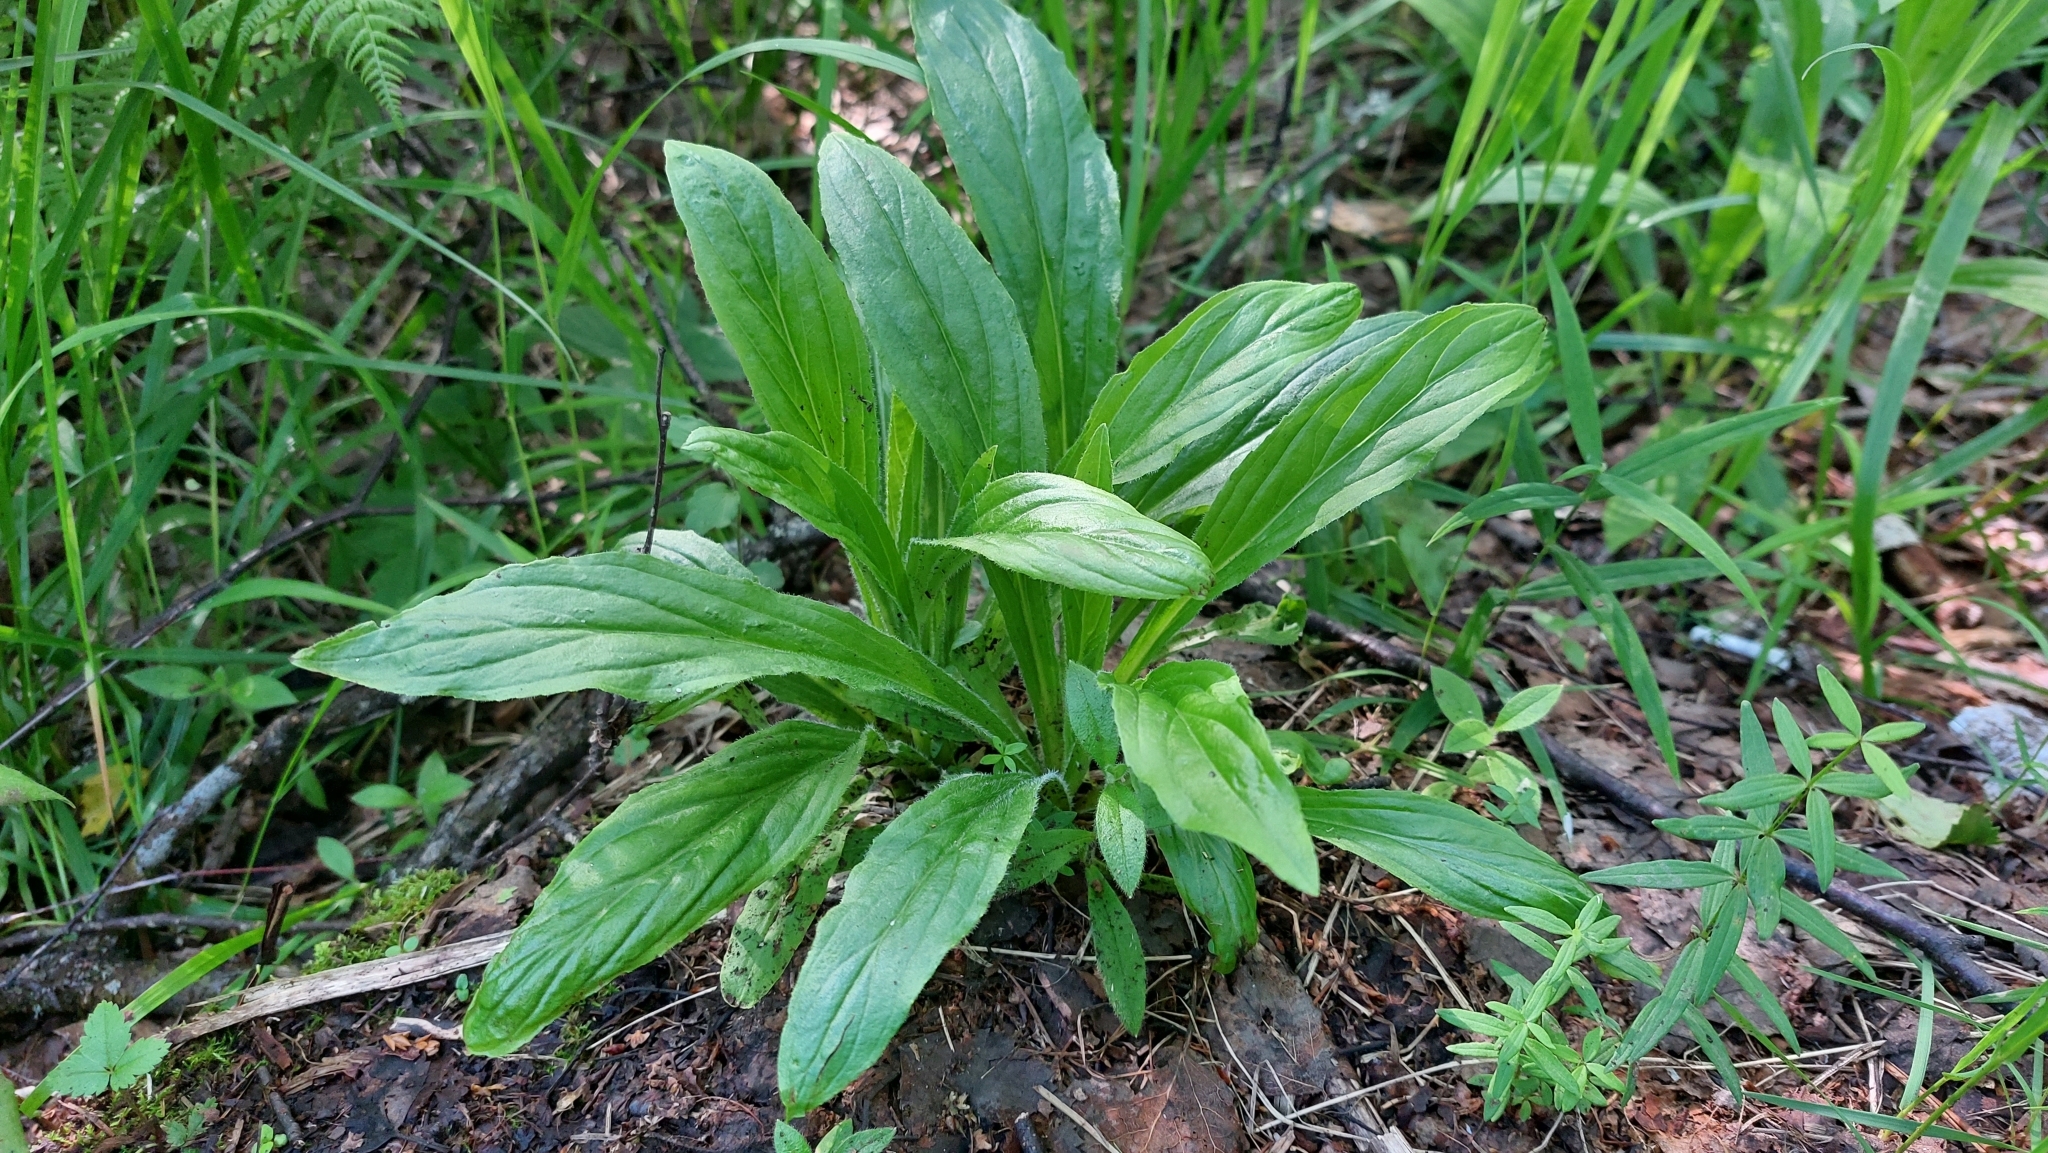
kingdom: Plantae
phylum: Tracheophyta
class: Magnoliopsida
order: Lamiales
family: Plantaginaceae
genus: Digitalis
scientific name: Digitalis grandiflora
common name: Yellow foxglove
